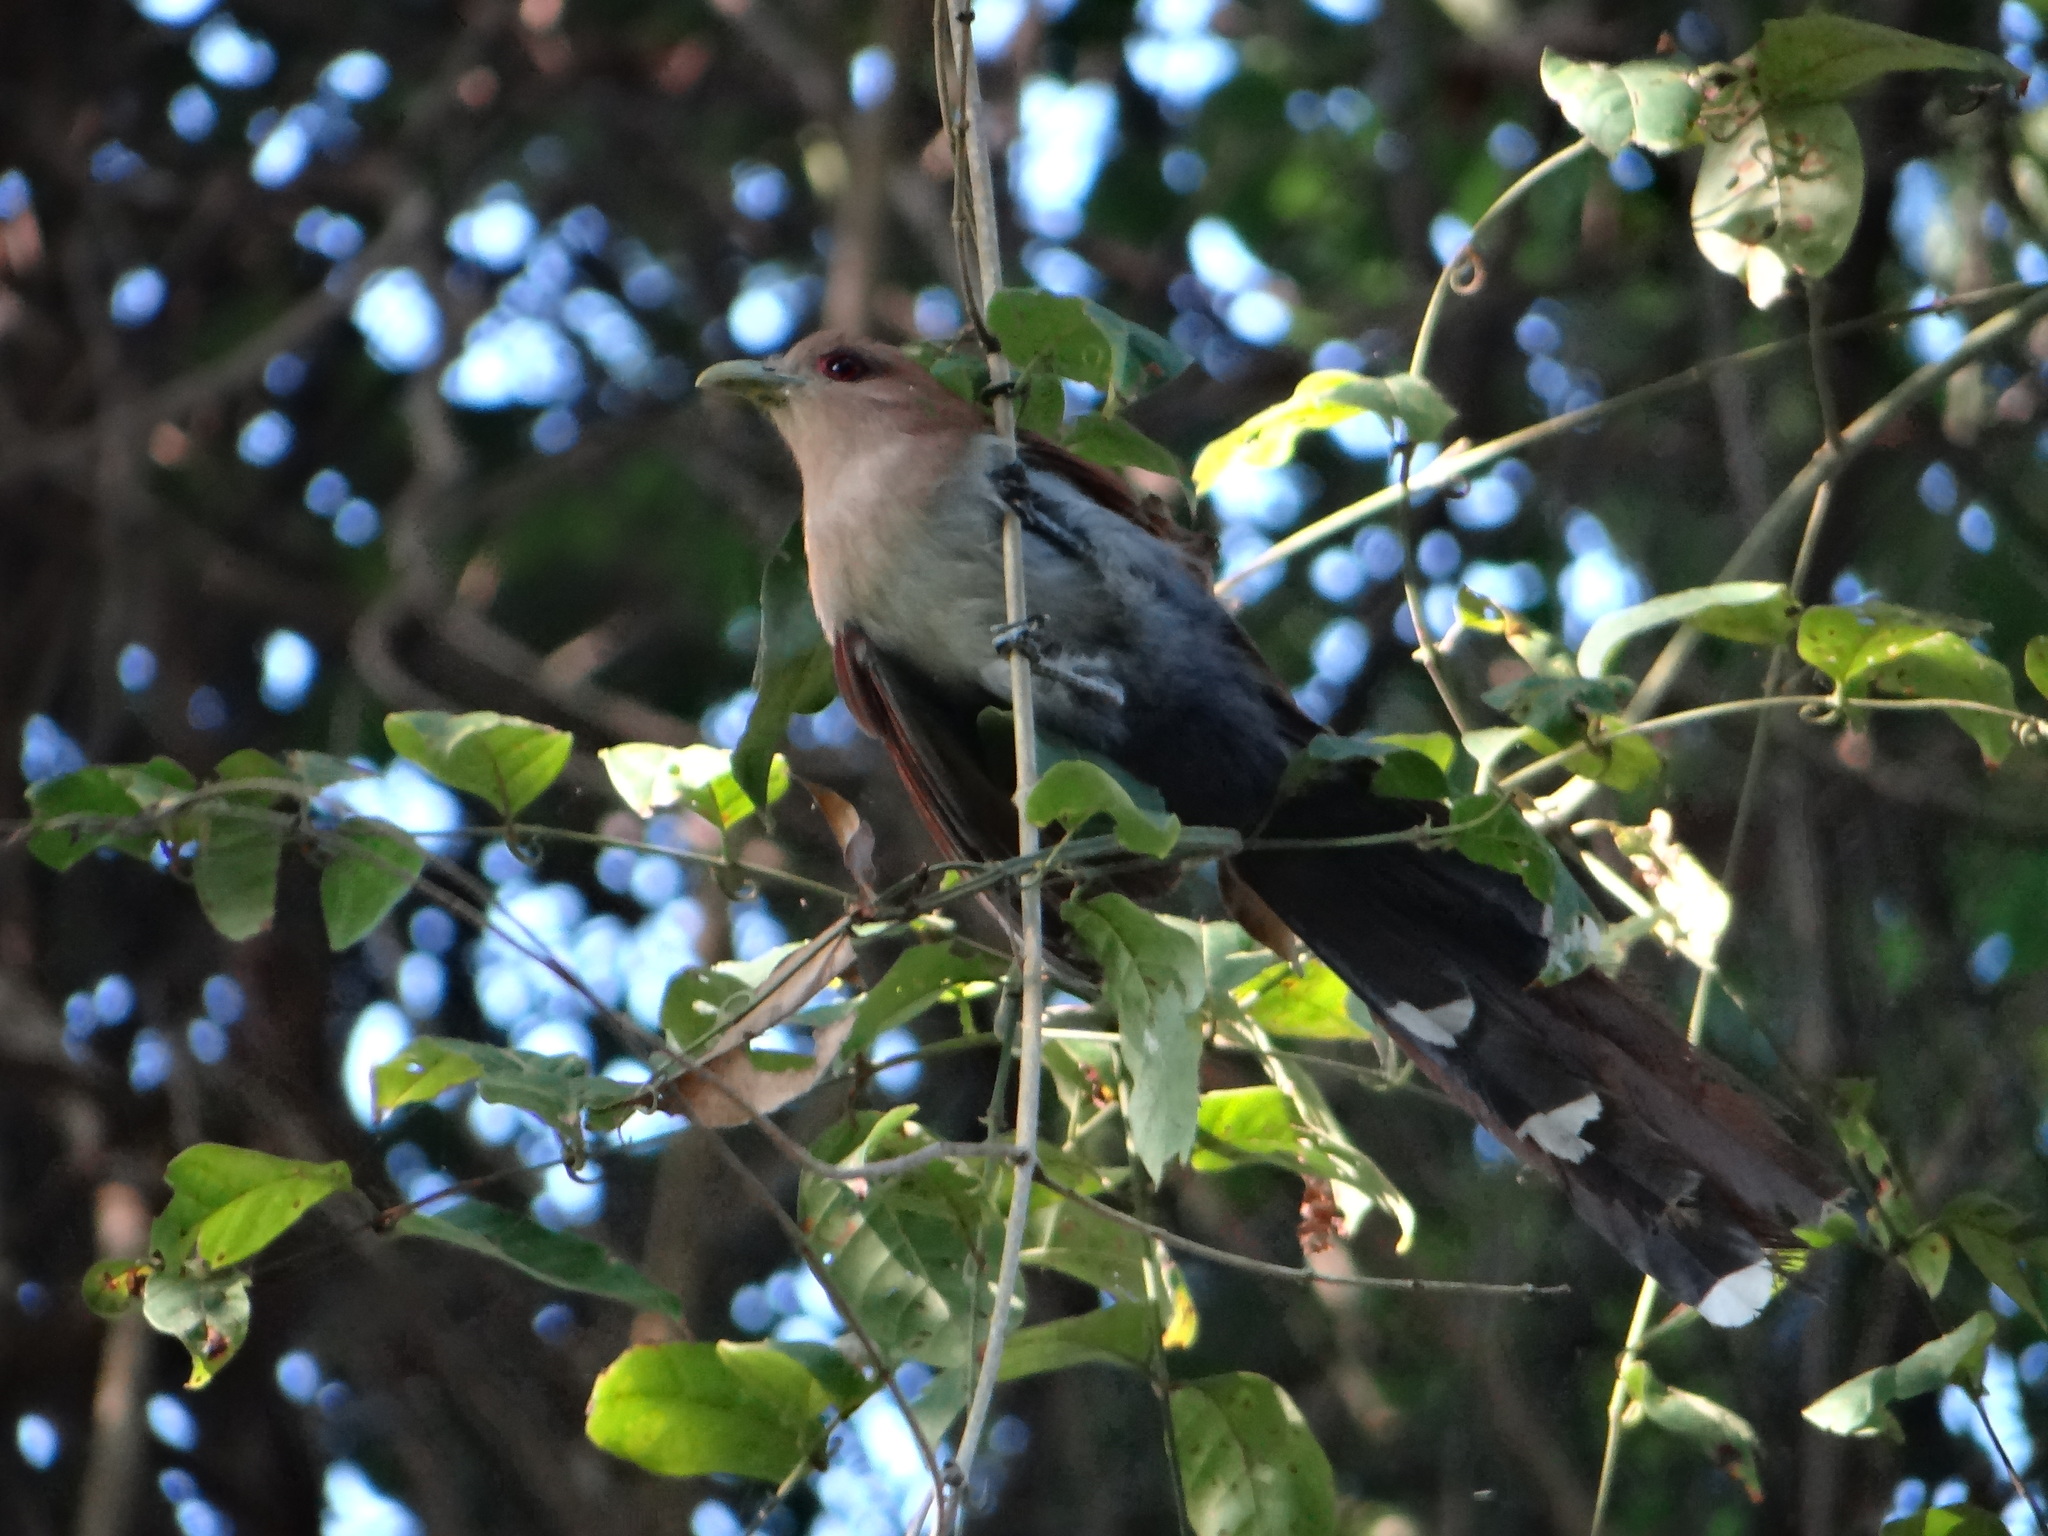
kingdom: Animalia
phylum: Chordata
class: Aves
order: Cuculiformes
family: Cuculidae
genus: Piaya
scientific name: Piaya cayana
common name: Squirrel cuckoo
